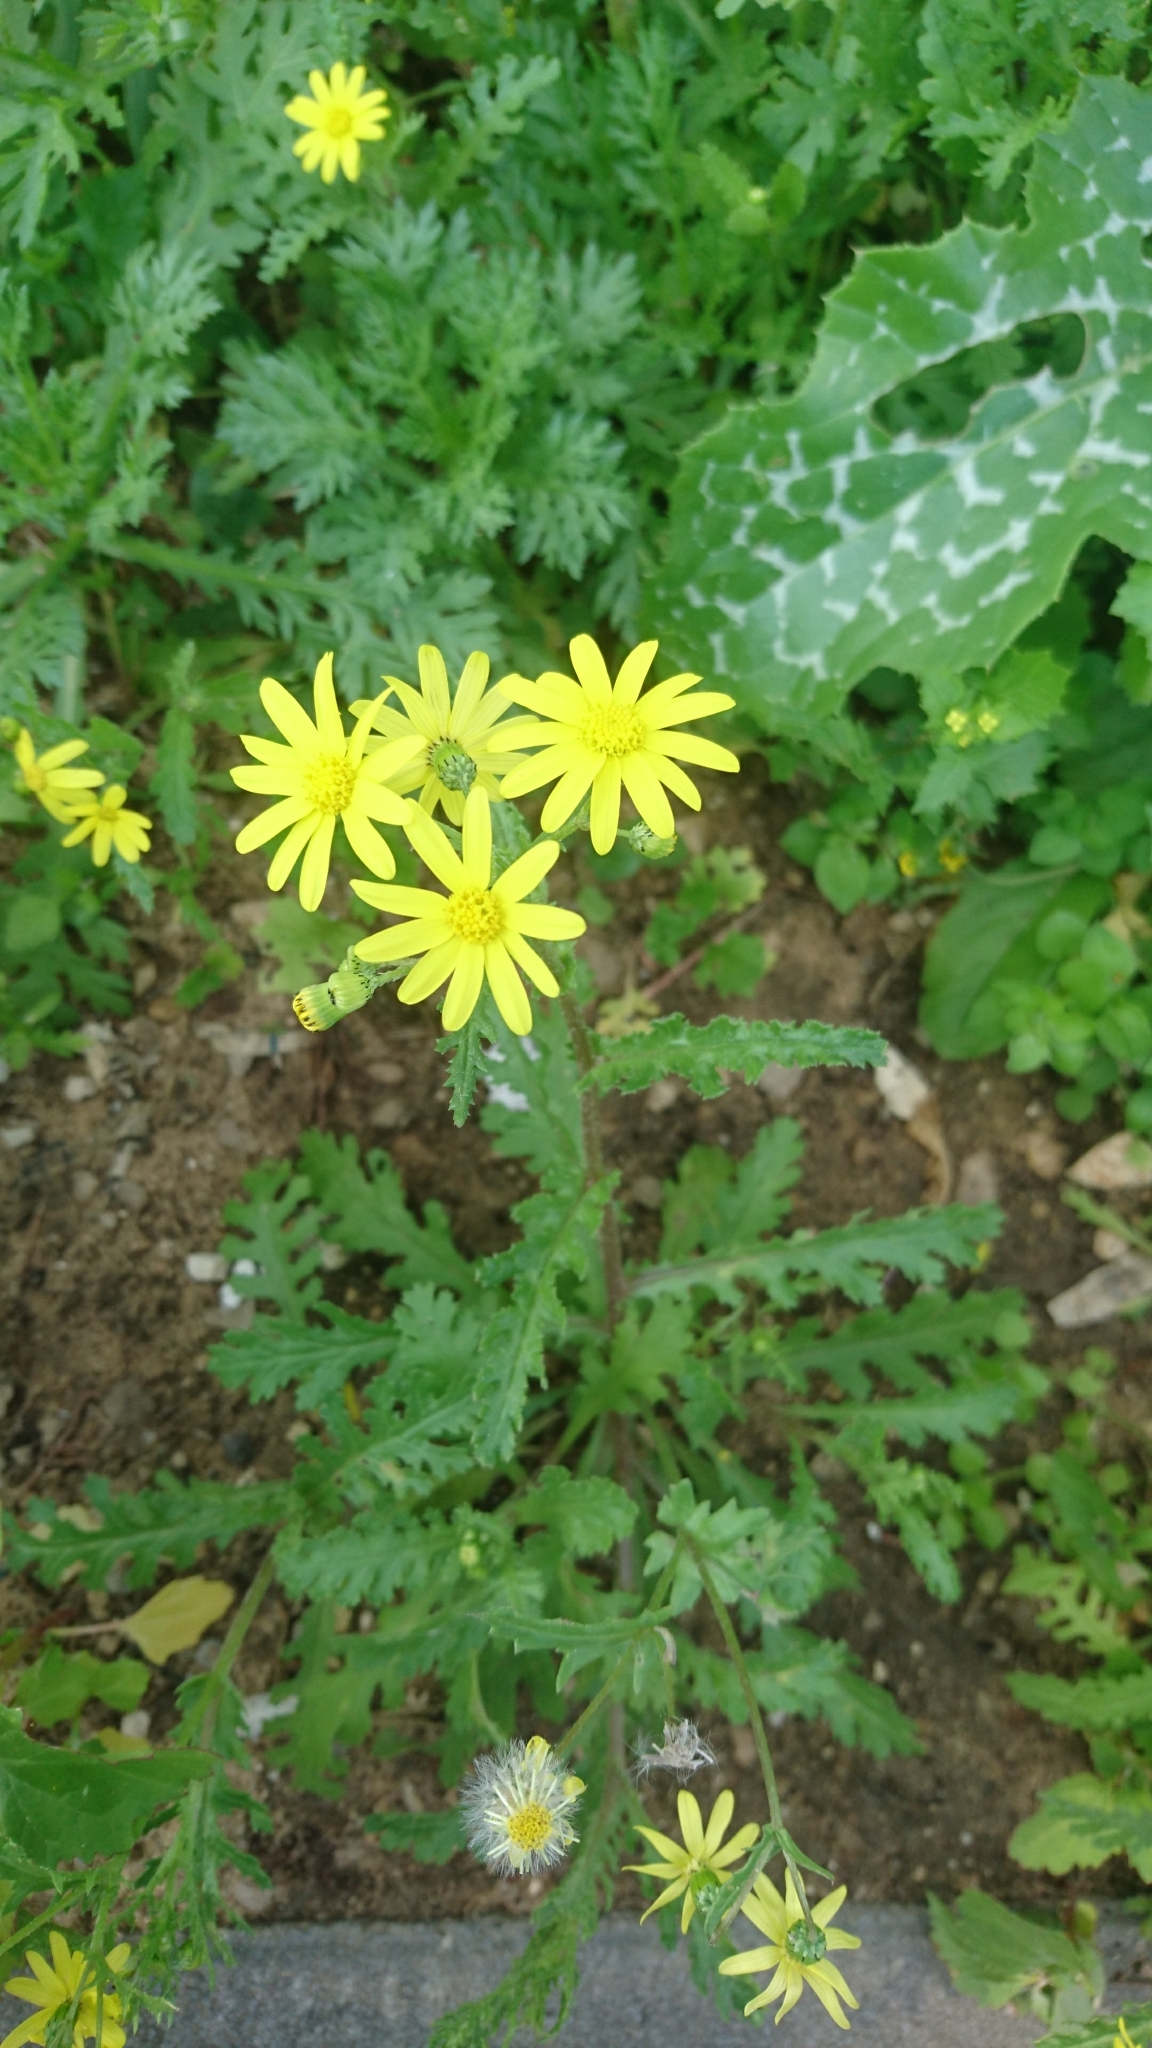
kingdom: Plantae
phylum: Tracheophyta
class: Magnoliopsida
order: Asterales
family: Asteraceae
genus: Senecio
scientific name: Senecio vernalis
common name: Eastern groundsel
